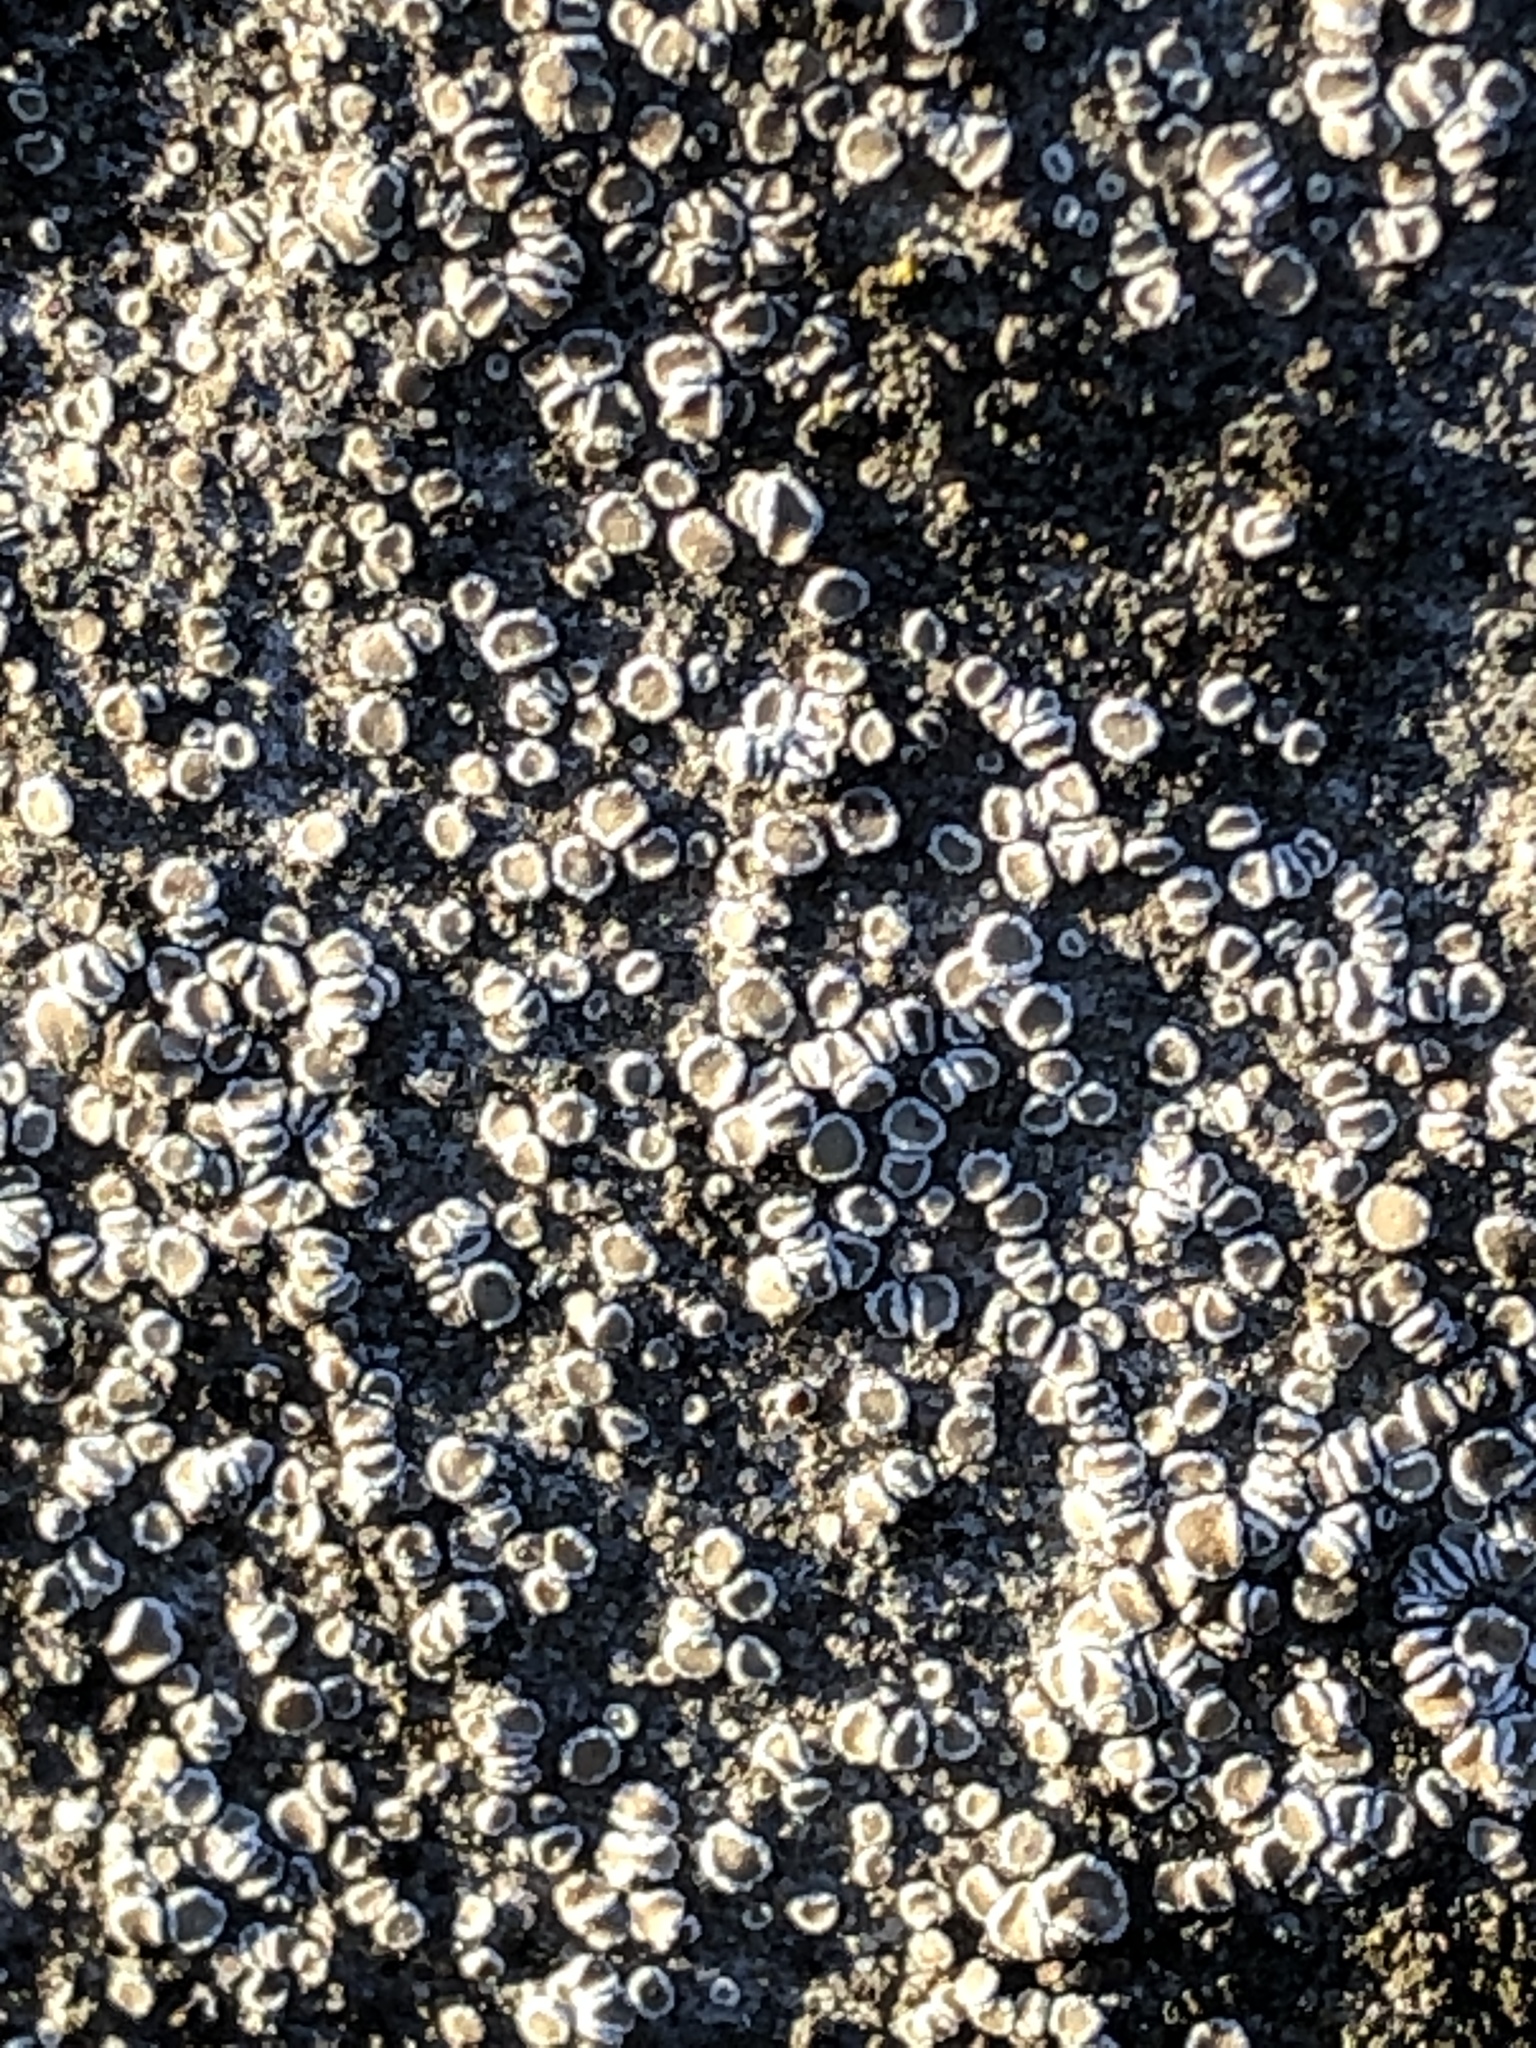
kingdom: Fungi
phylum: Ascomycota
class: Lecanoromycetes
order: Lecanorales
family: Lecanoraceae
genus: Polyozosia
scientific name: Polyozosia dispersa
